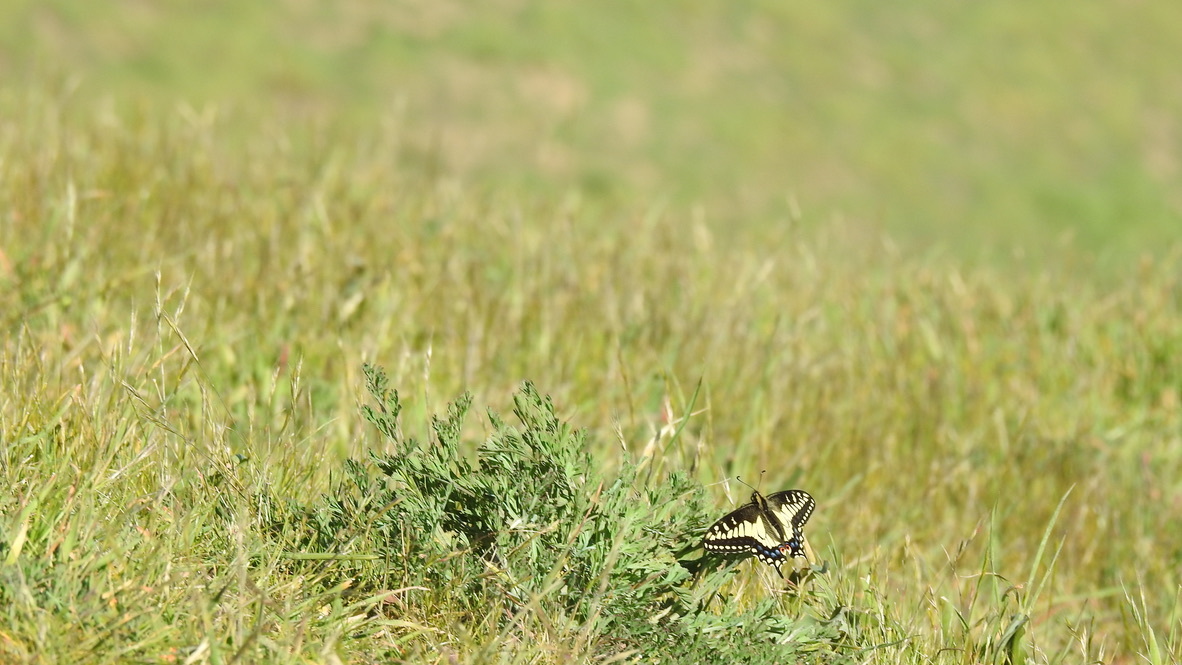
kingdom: Animalia
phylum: Arthropoda
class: Insecta
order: Lepidoptera
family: Papilionidae
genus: Papilio
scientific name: Papilio zelicaon
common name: Anise swallowtail
